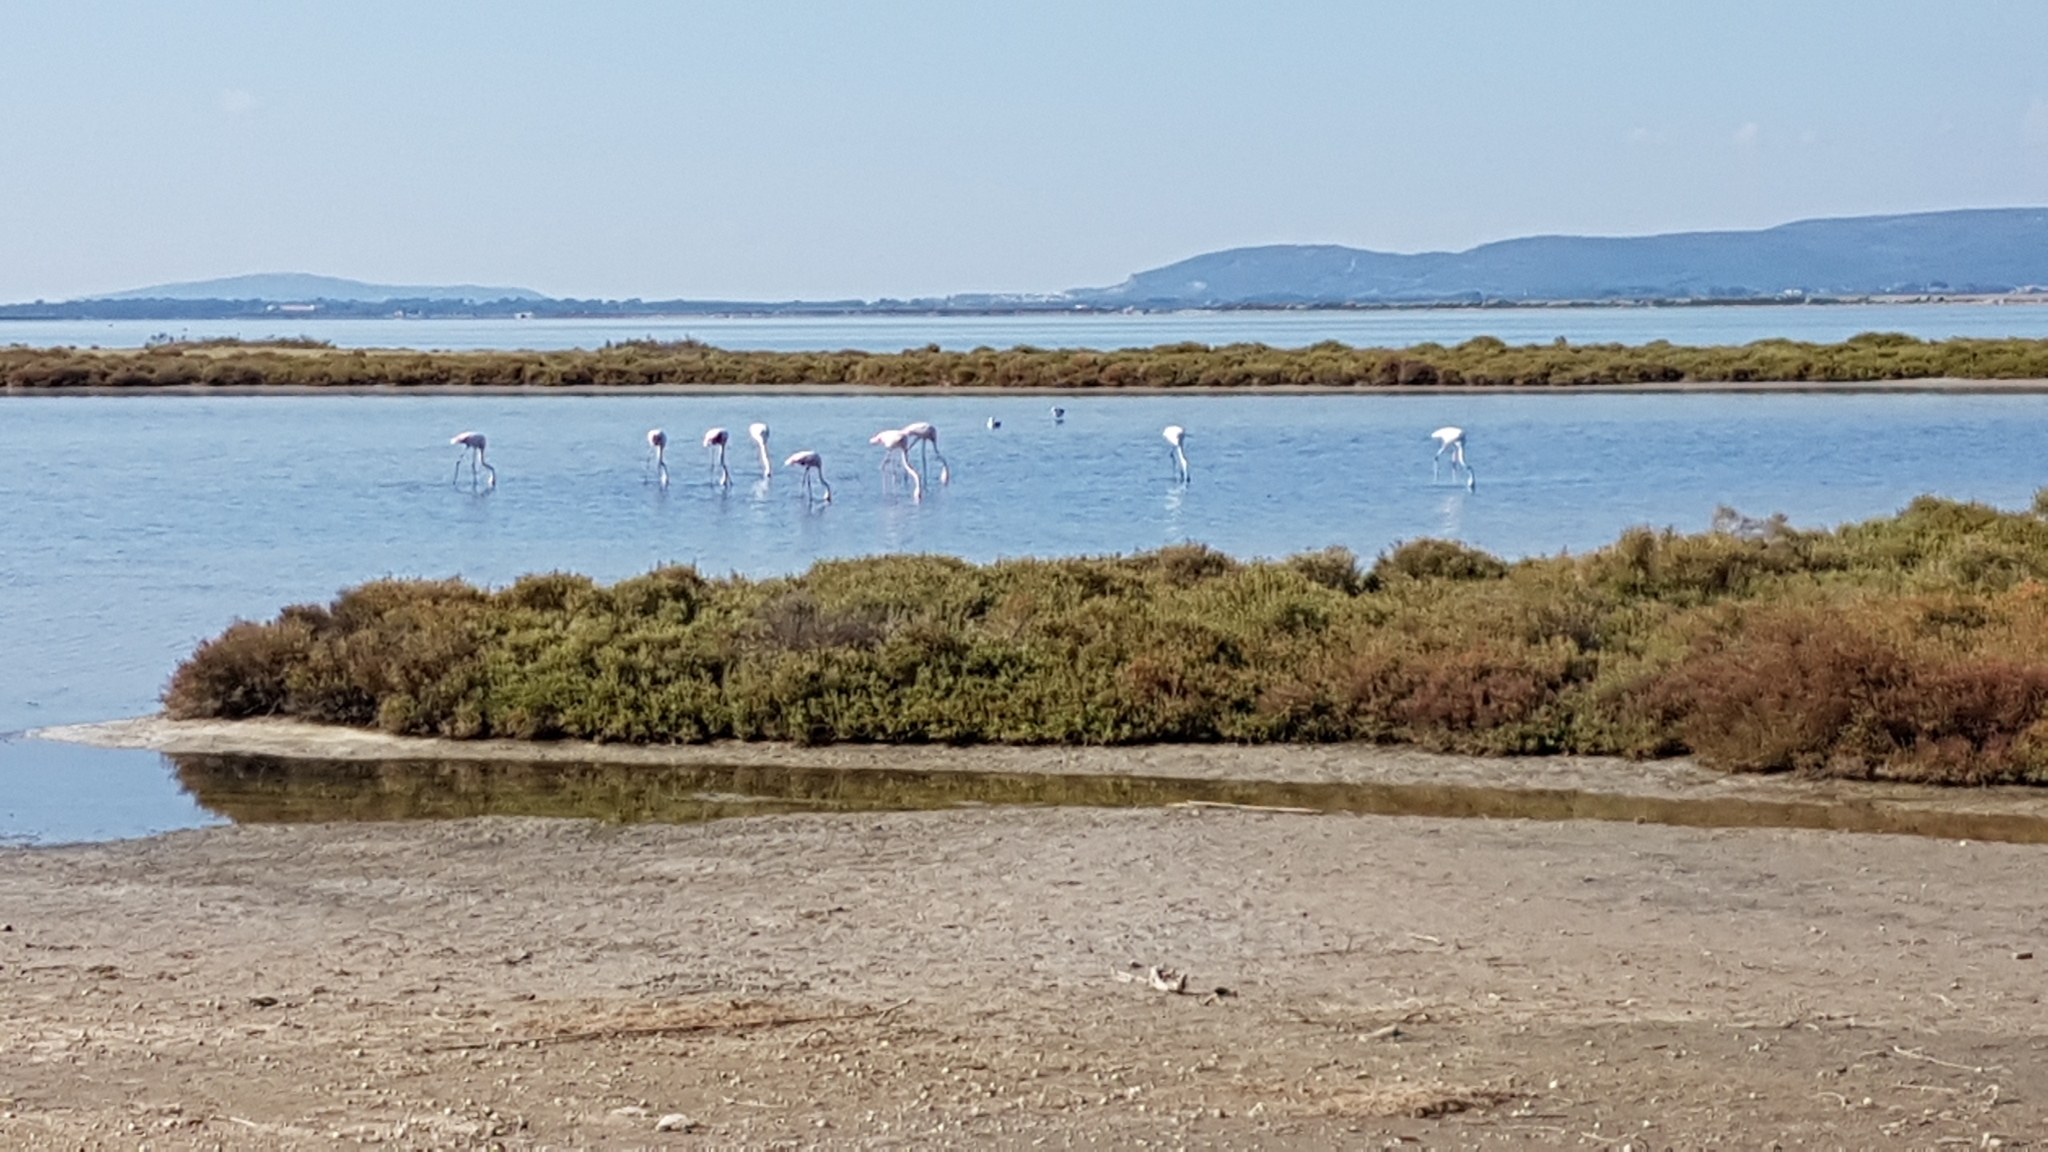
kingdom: Animalia
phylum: Chordata
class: Aves
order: Phoenicopteriformes
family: Phoenicopteridae
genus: Phoenicopterus
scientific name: Phoenicopterus roseus
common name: Greater flamingo
